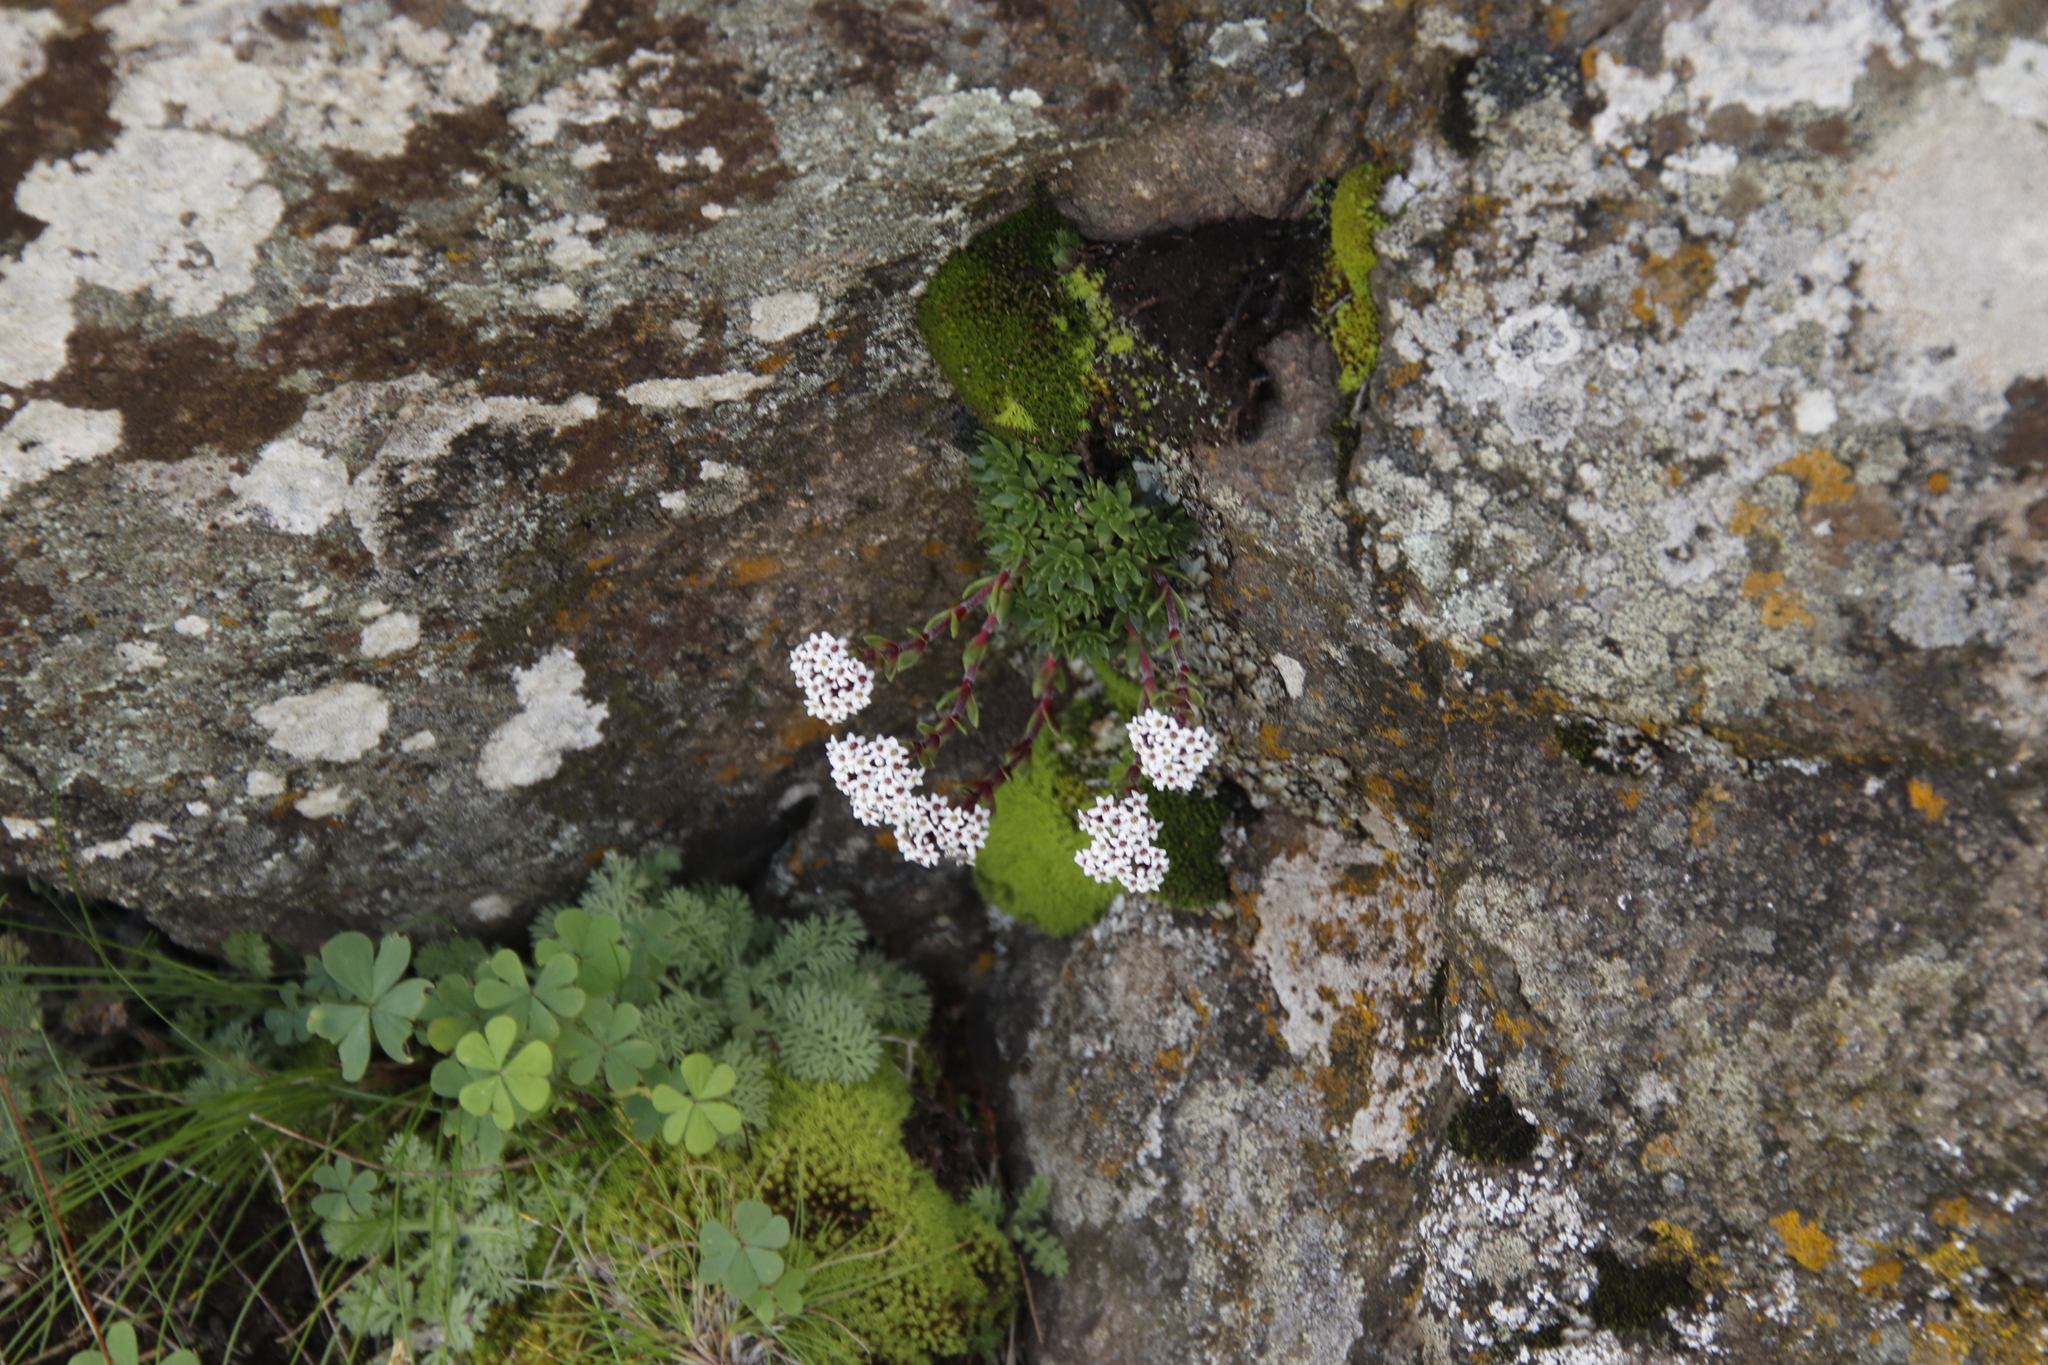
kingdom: Plantae
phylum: Tracheophyta
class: Magnoliopsida
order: Saxifragales
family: Crassulaceae
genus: Crassula
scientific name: Crassula setulosa
